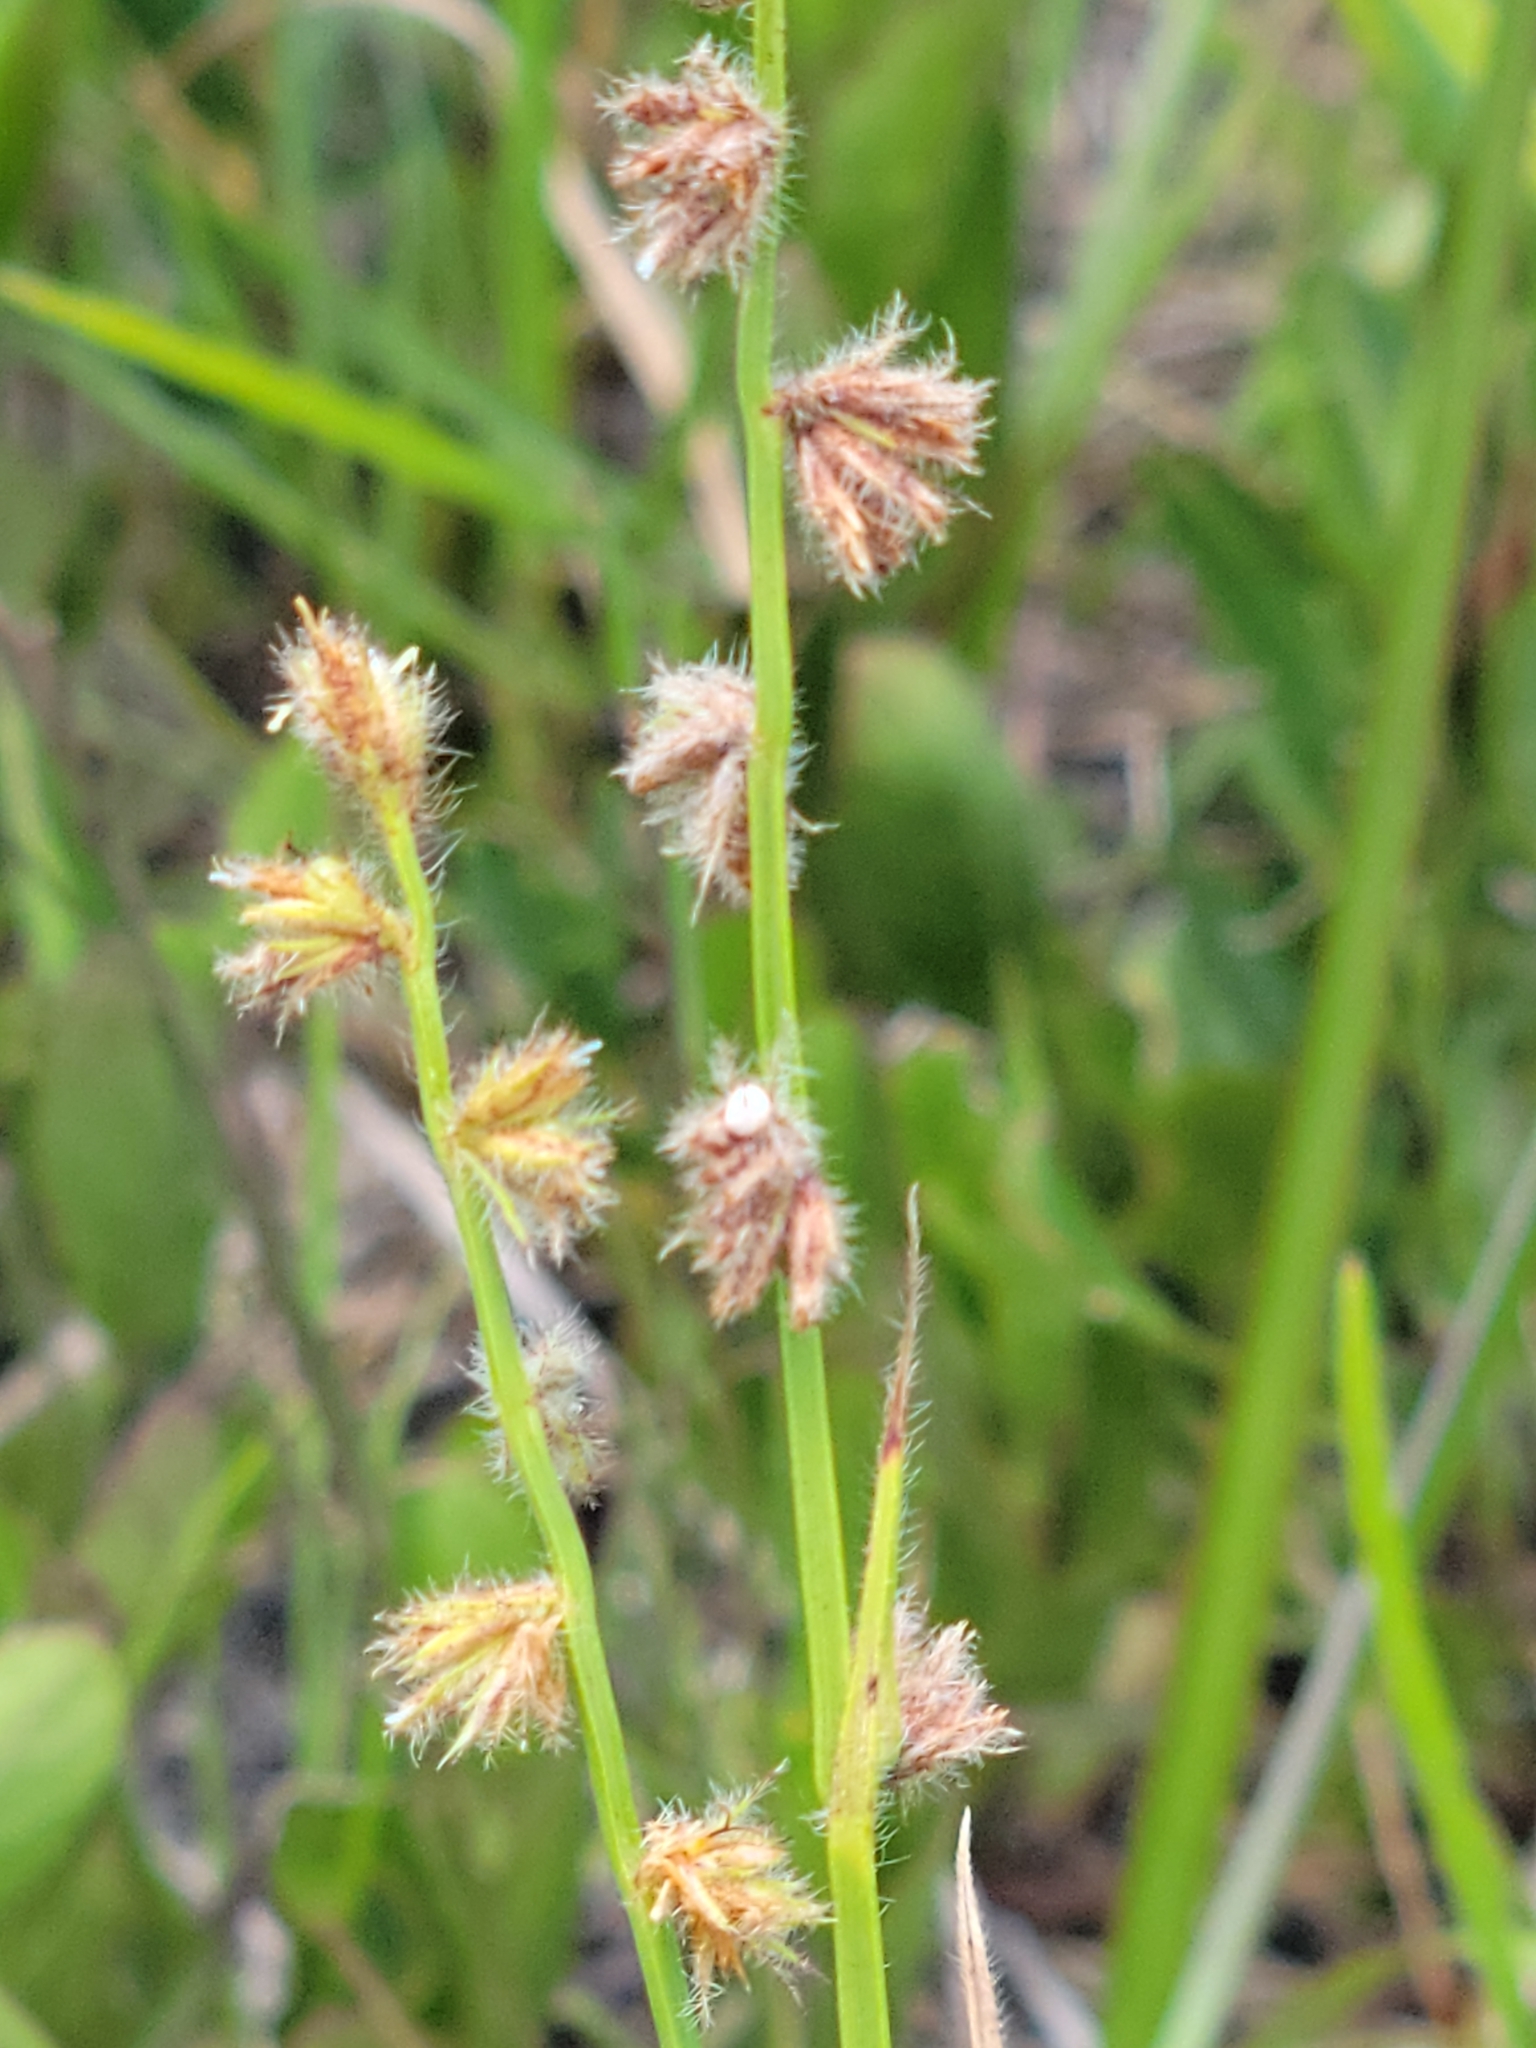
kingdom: Plantae
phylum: Tracheophyta
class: Liliopsida
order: Poales
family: Cyperaceae
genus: Scleria
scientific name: Scleria distans
